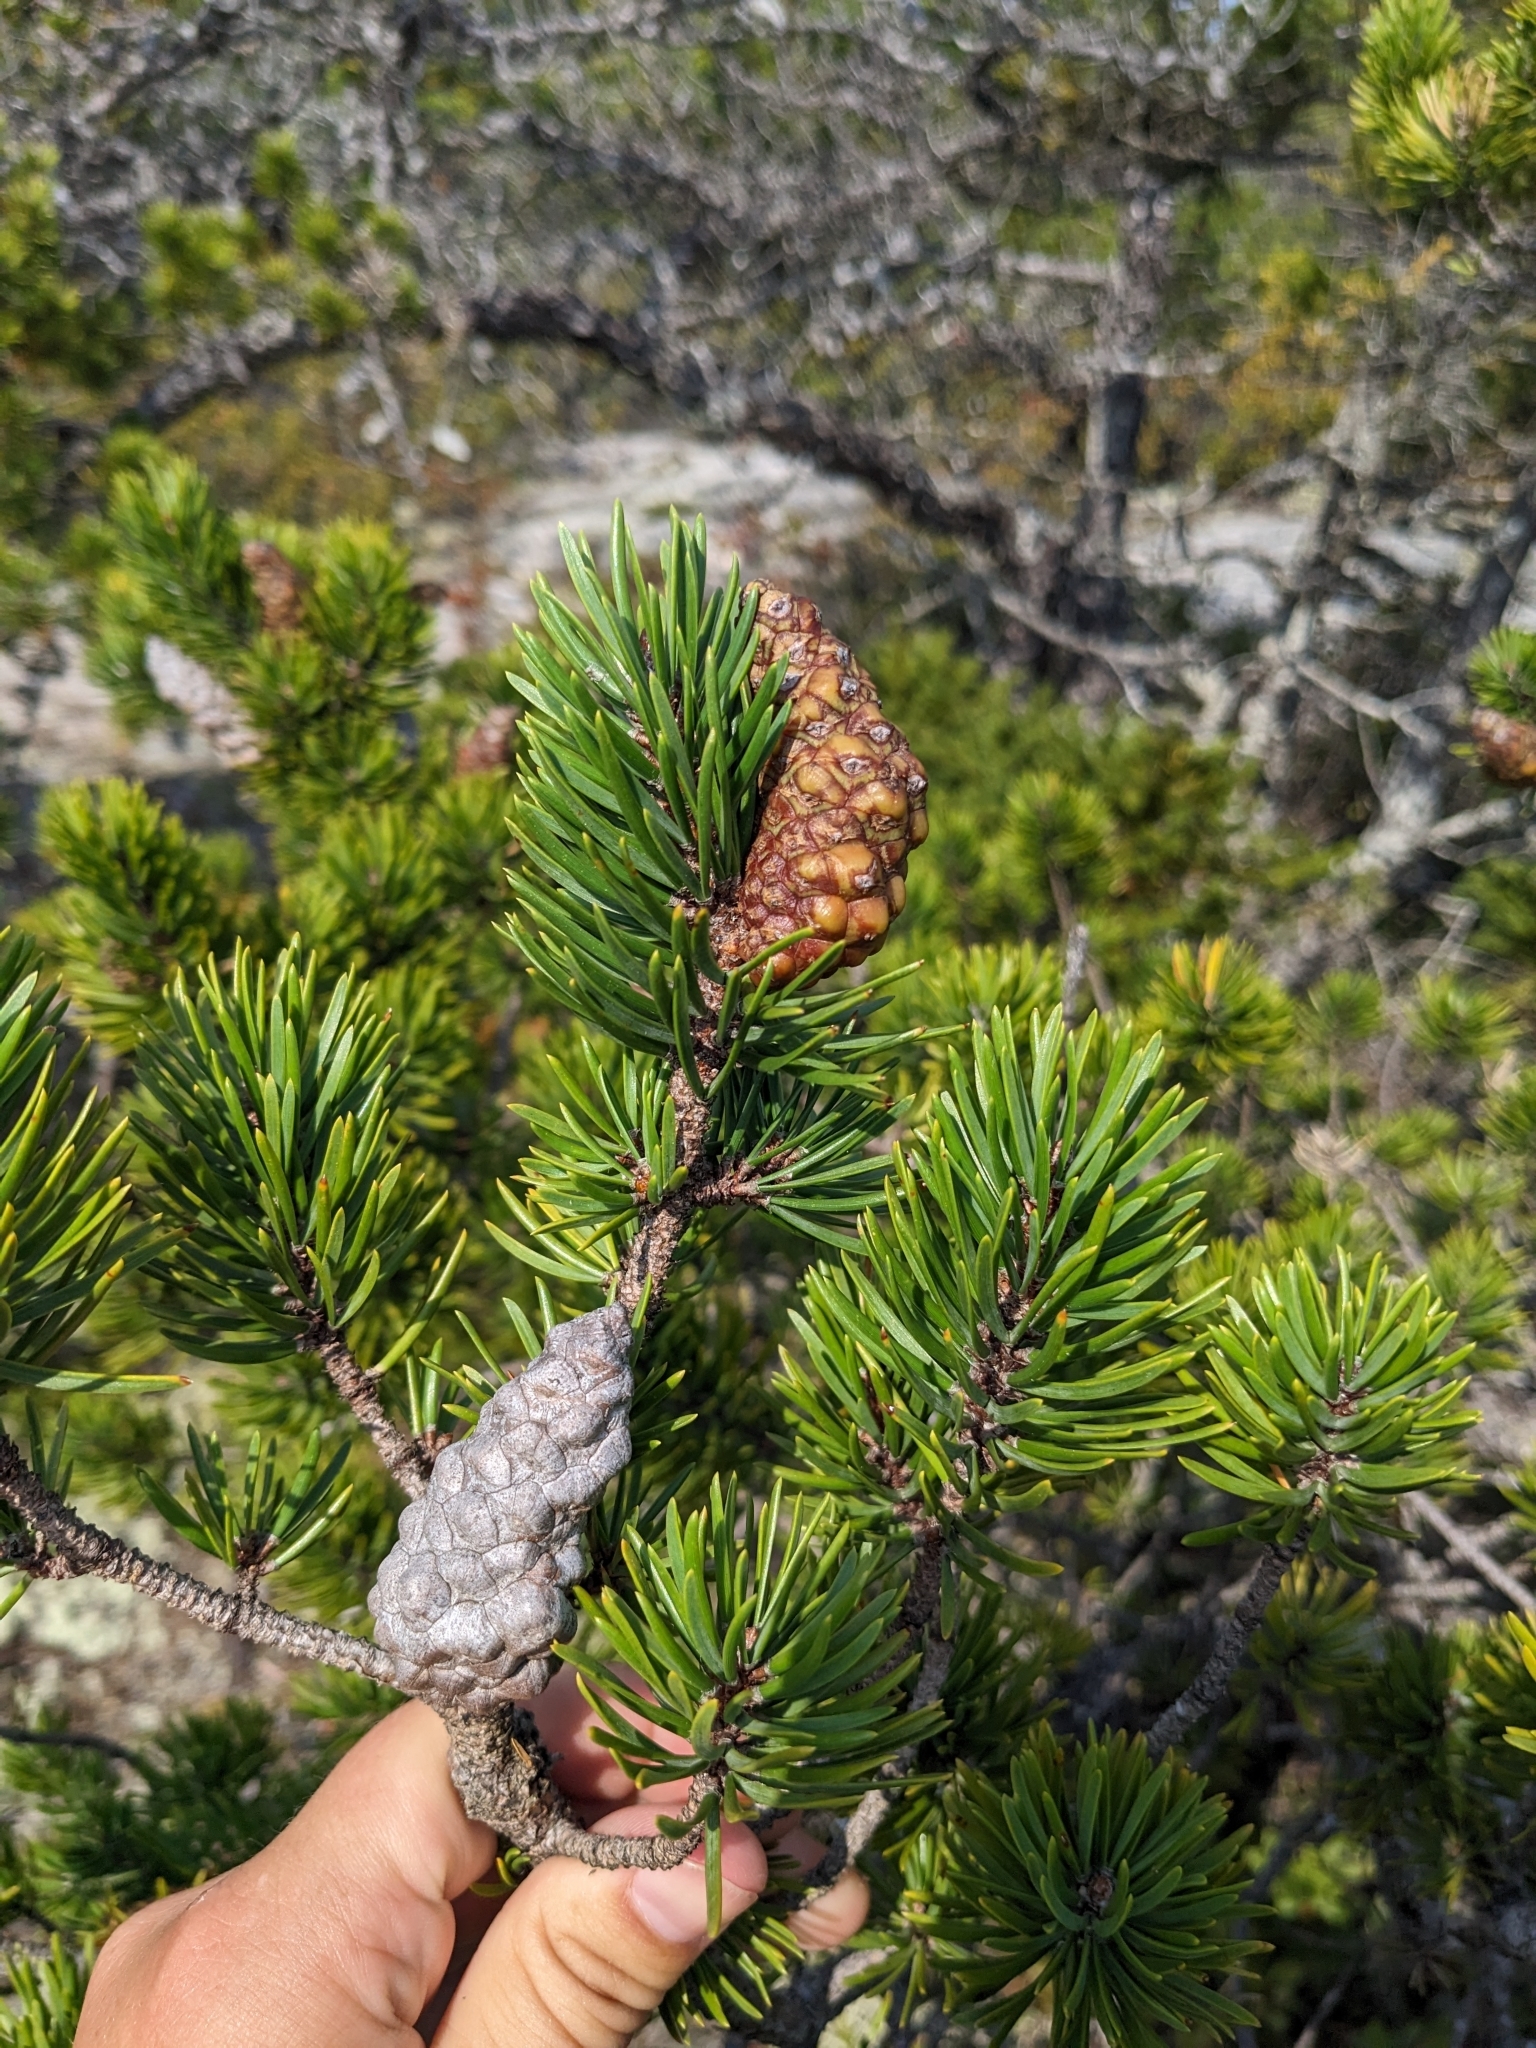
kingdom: Plantae
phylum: Tracheophyta
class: Pinopsida
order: Pinales
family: Pinaceae
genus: Pinus
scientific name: Pinus banksiana
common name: Jack pine
